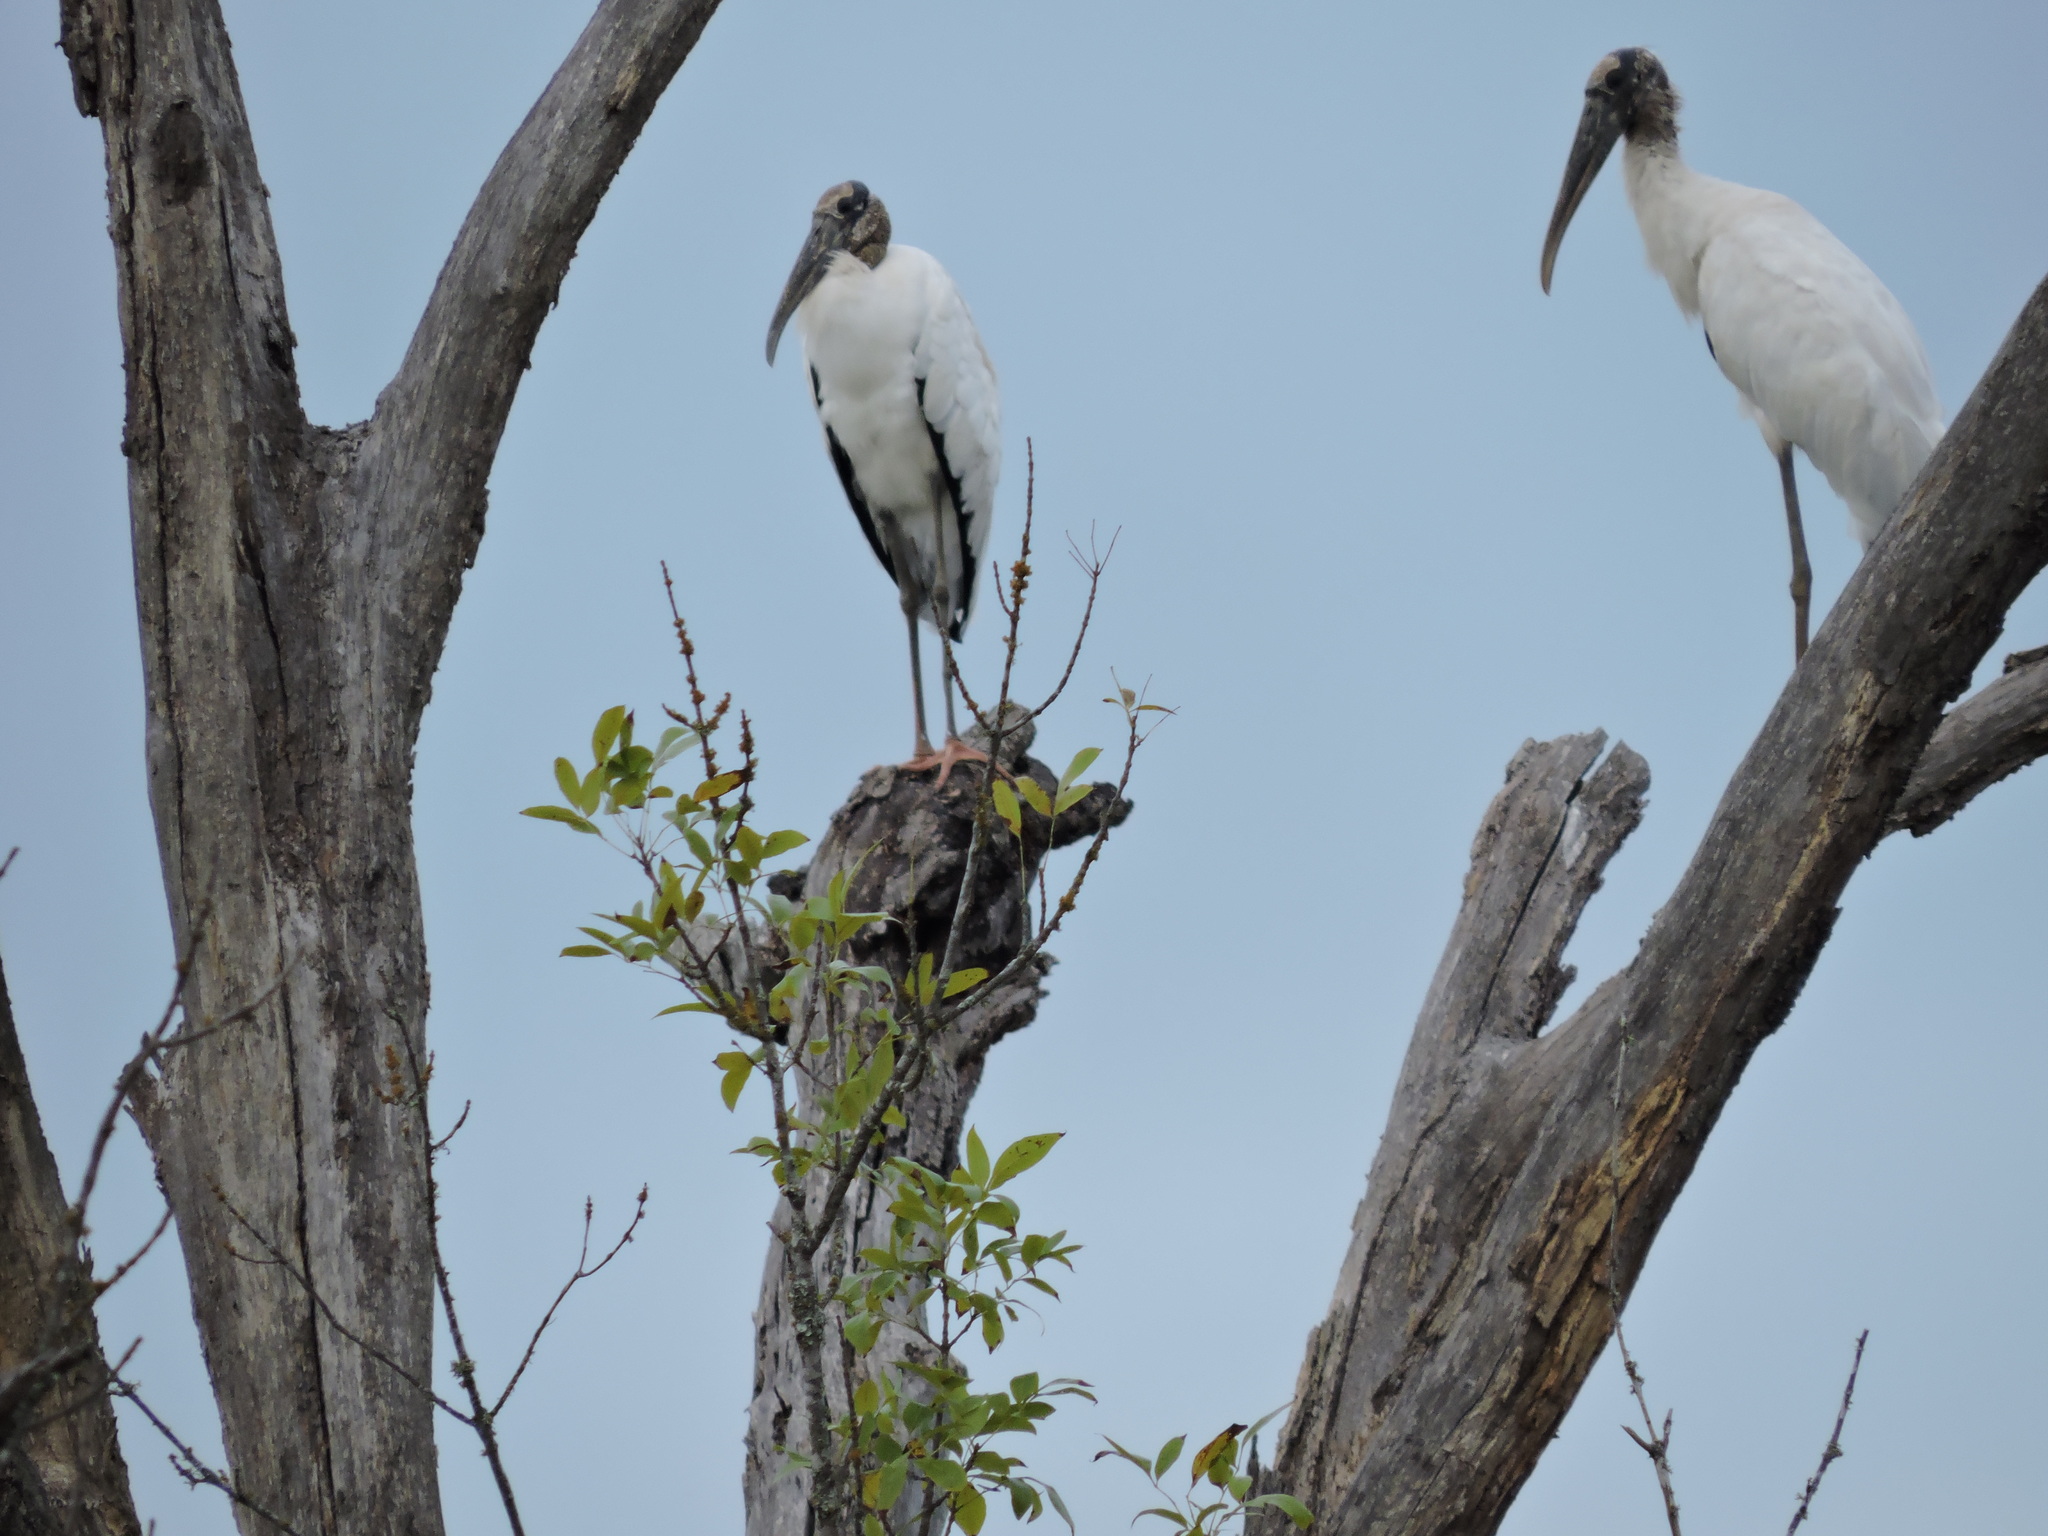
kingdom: Animalia
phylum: Chordata
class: Aves
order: Ciconiiformes
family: Ciconiidae
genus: Mycteria
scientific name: Mycteria americana
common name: Wood stork
